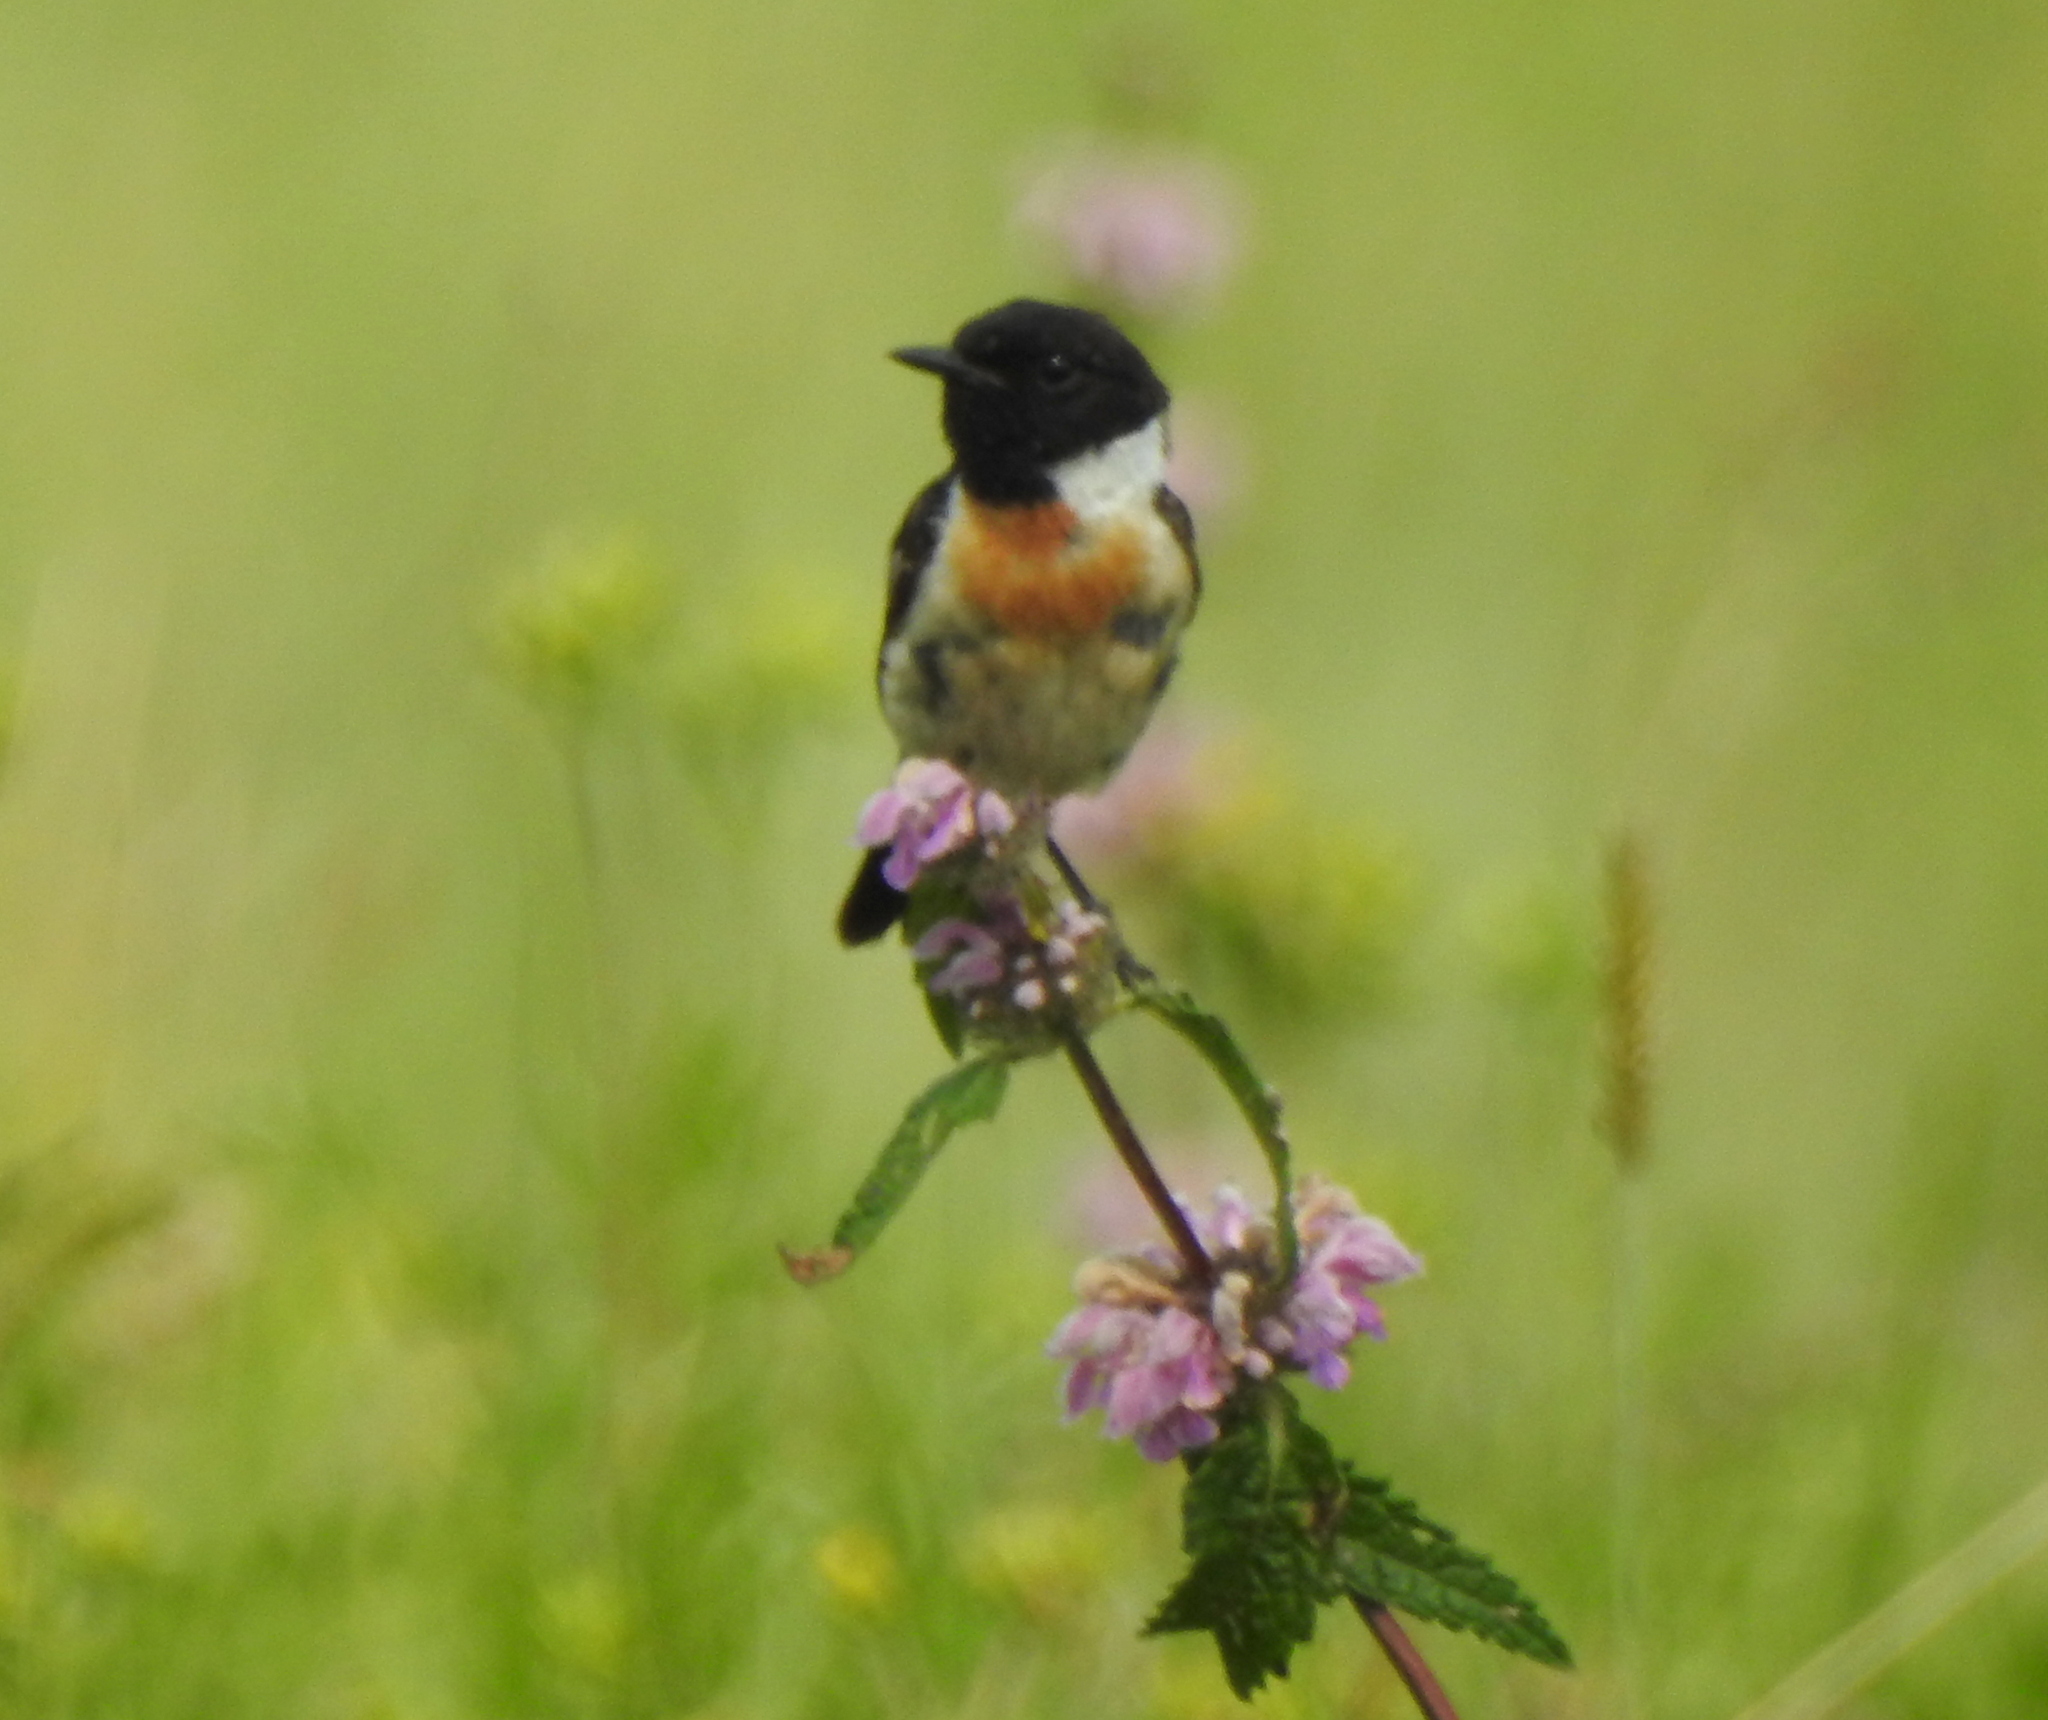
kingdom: Animalia
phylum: Chordata
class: Aves
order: Passeriformes
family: Muscicapidae
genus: Saxicola
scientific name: Saxicola maurus
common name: Siberian stonechat
